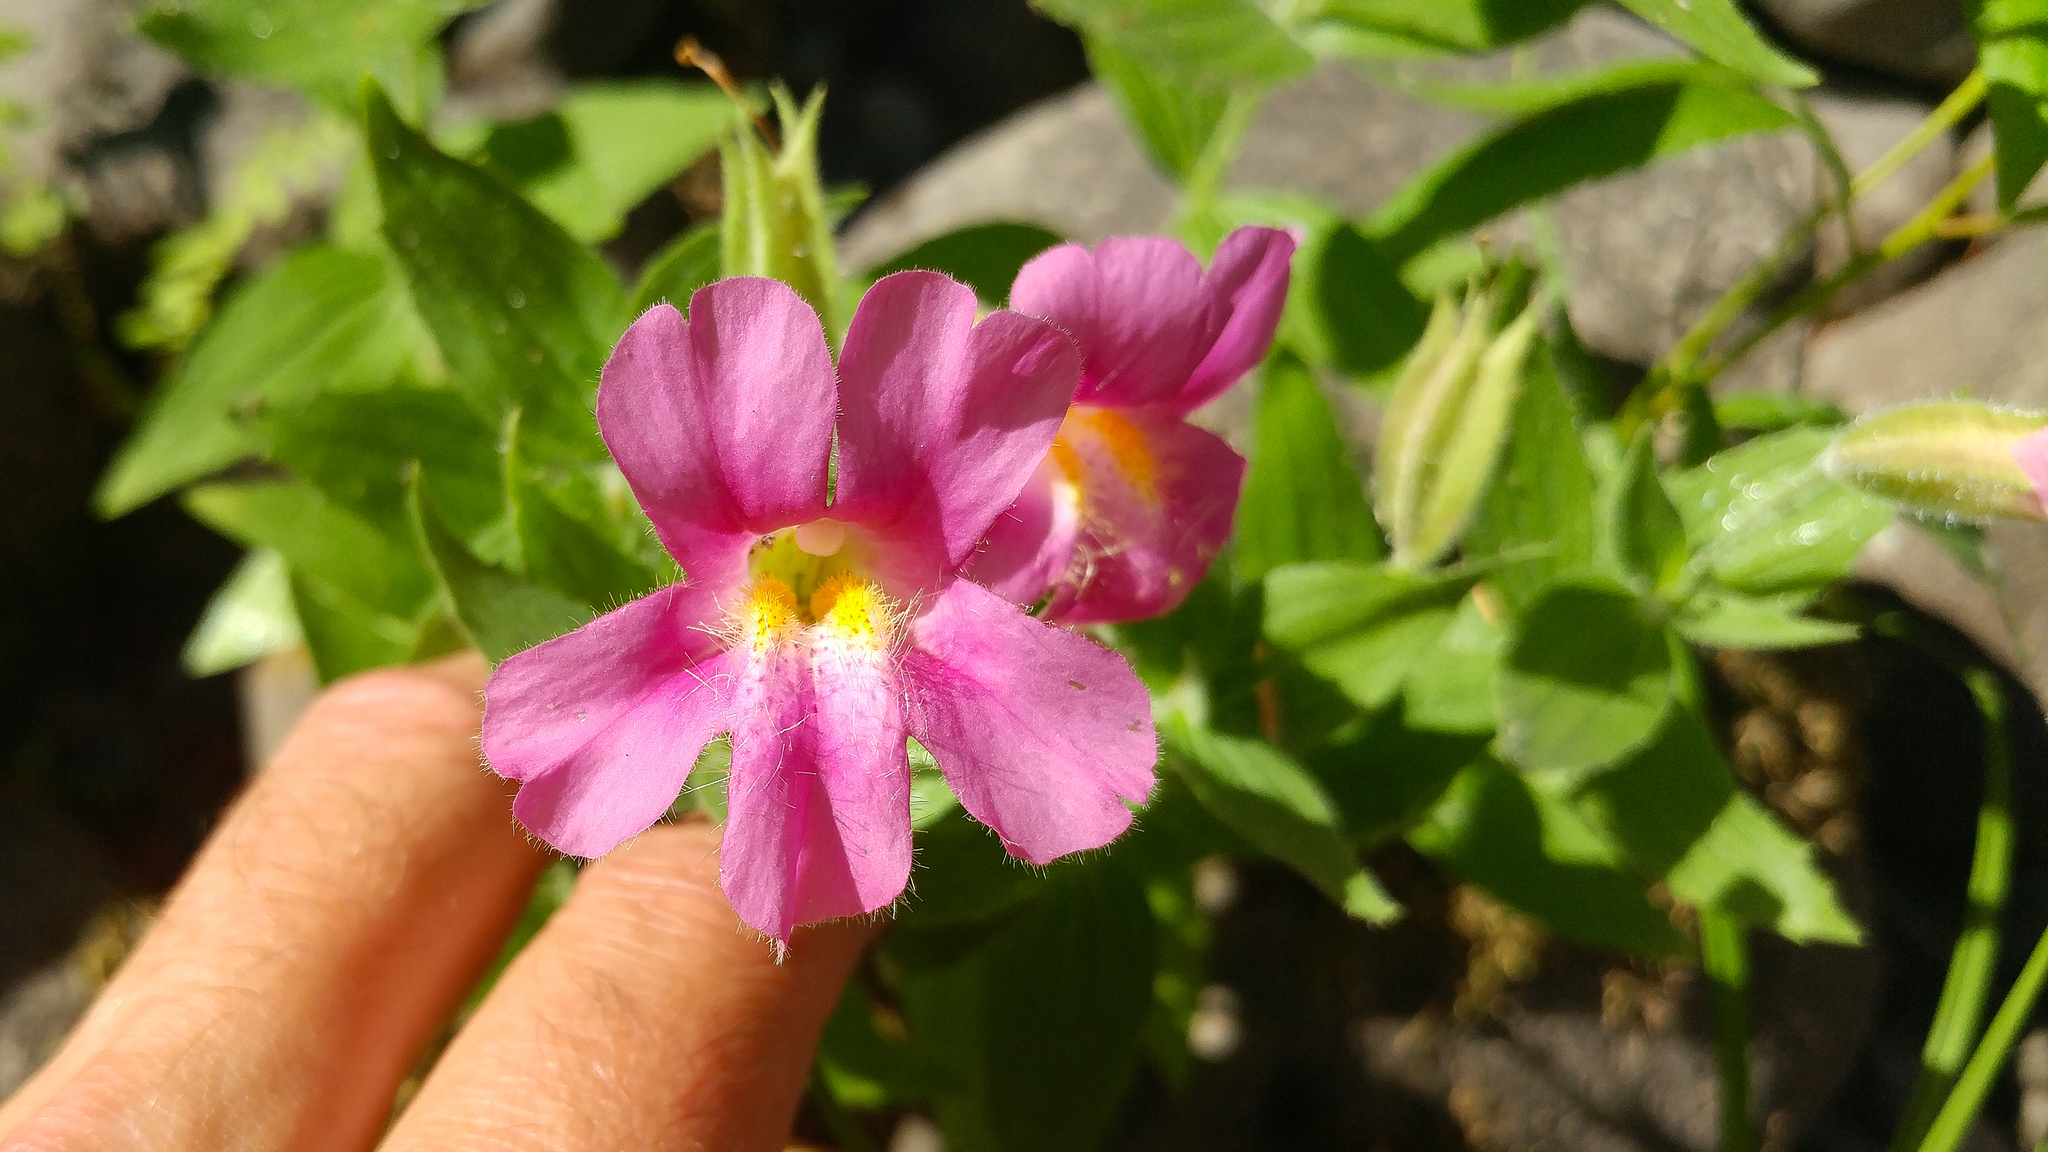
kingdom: Plantae
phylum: Tracheophyta
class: Magnoliopsida
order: Lamiales
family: Phrymaceae
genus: Erythranthe
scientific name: Erythranthe lewisii
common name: Lewis's monkey-flower
